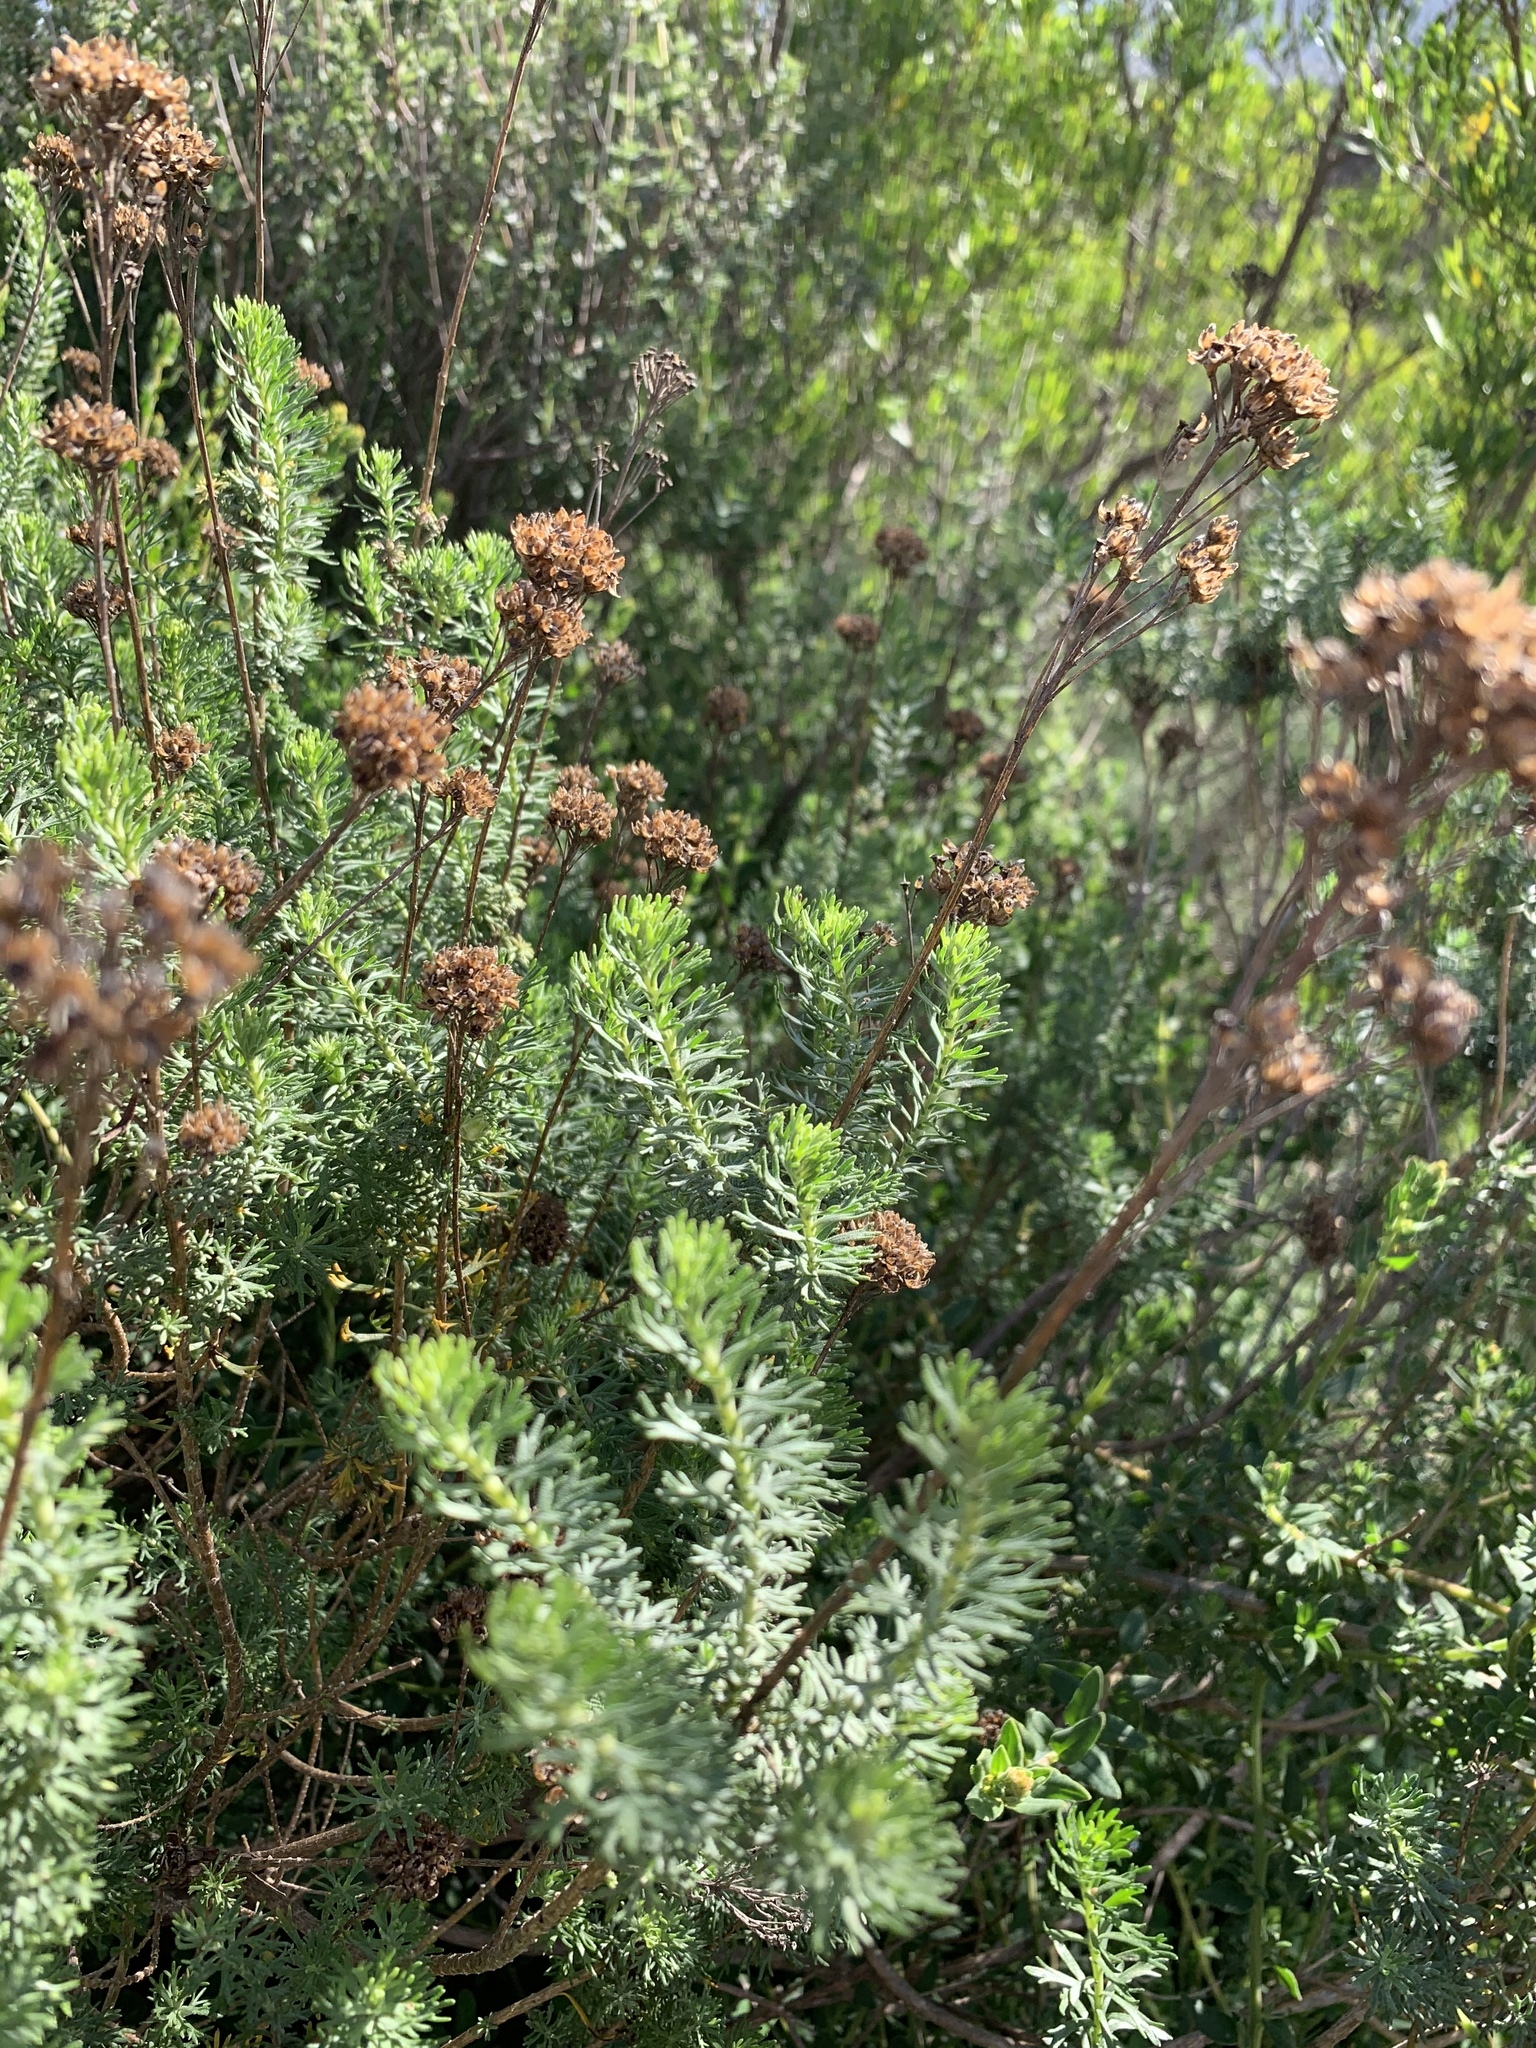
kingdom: Plantae
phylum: Tracheophyta
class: Magnoliopsida
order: Asterales
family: Asteraceae
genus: Athanasia
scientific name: Athanasia trifurcata
